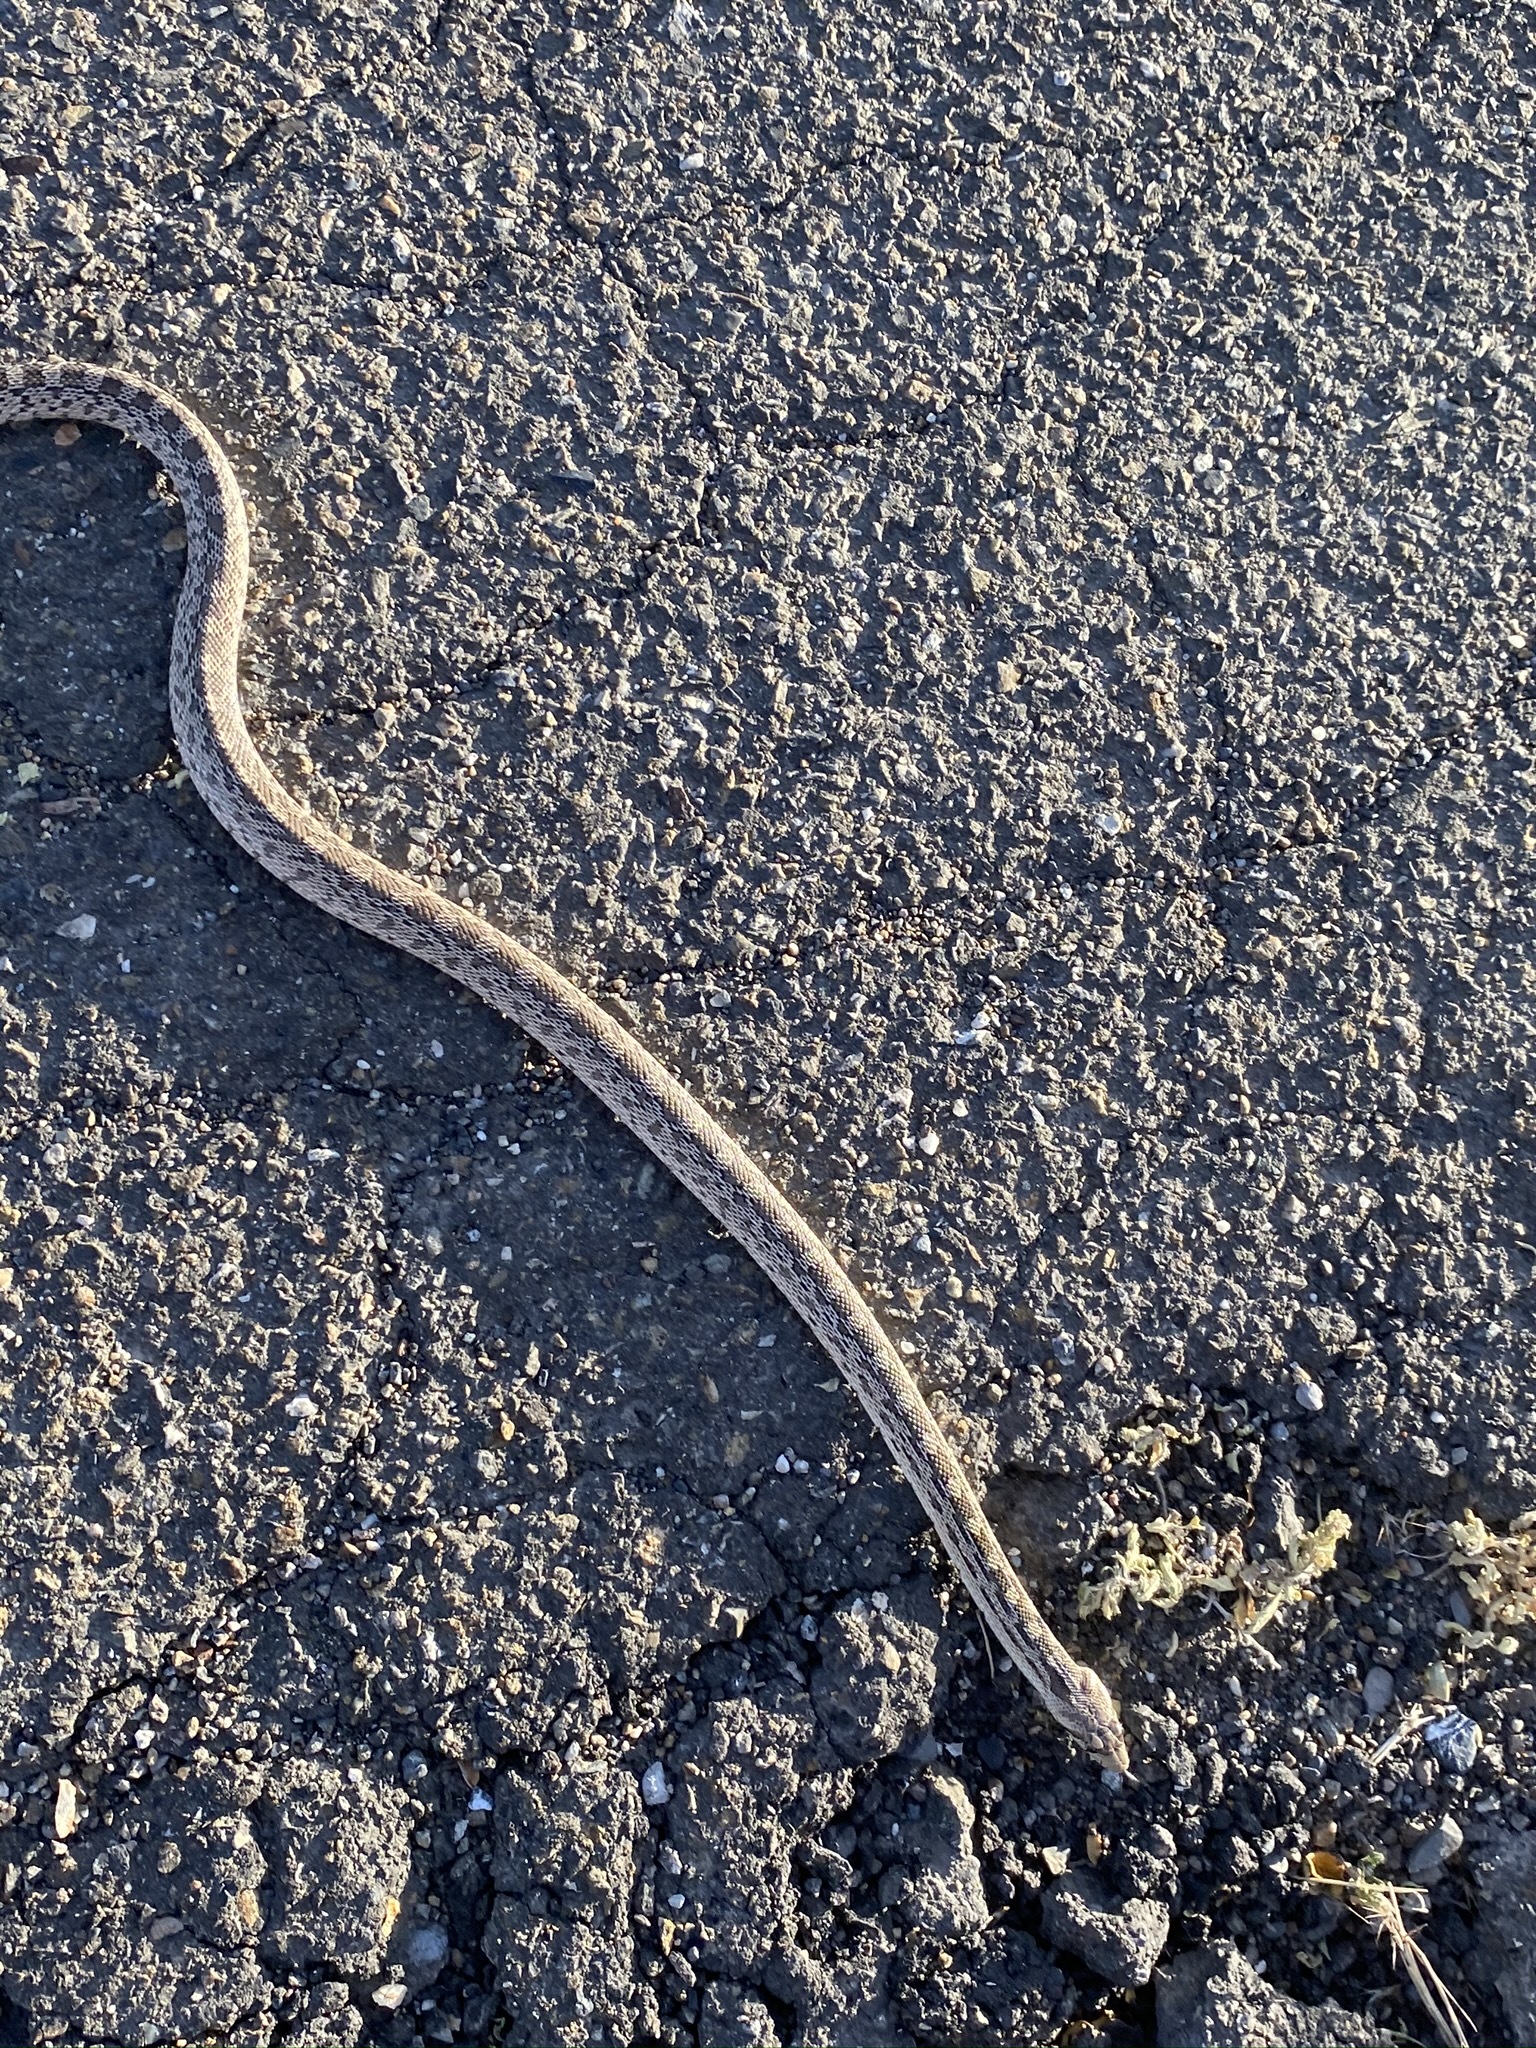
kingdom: Animalia
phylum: Chordata
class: Squamata
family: Colubridae
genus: Pituophis
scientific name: Pituophis catenifer
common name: Gopher snake
